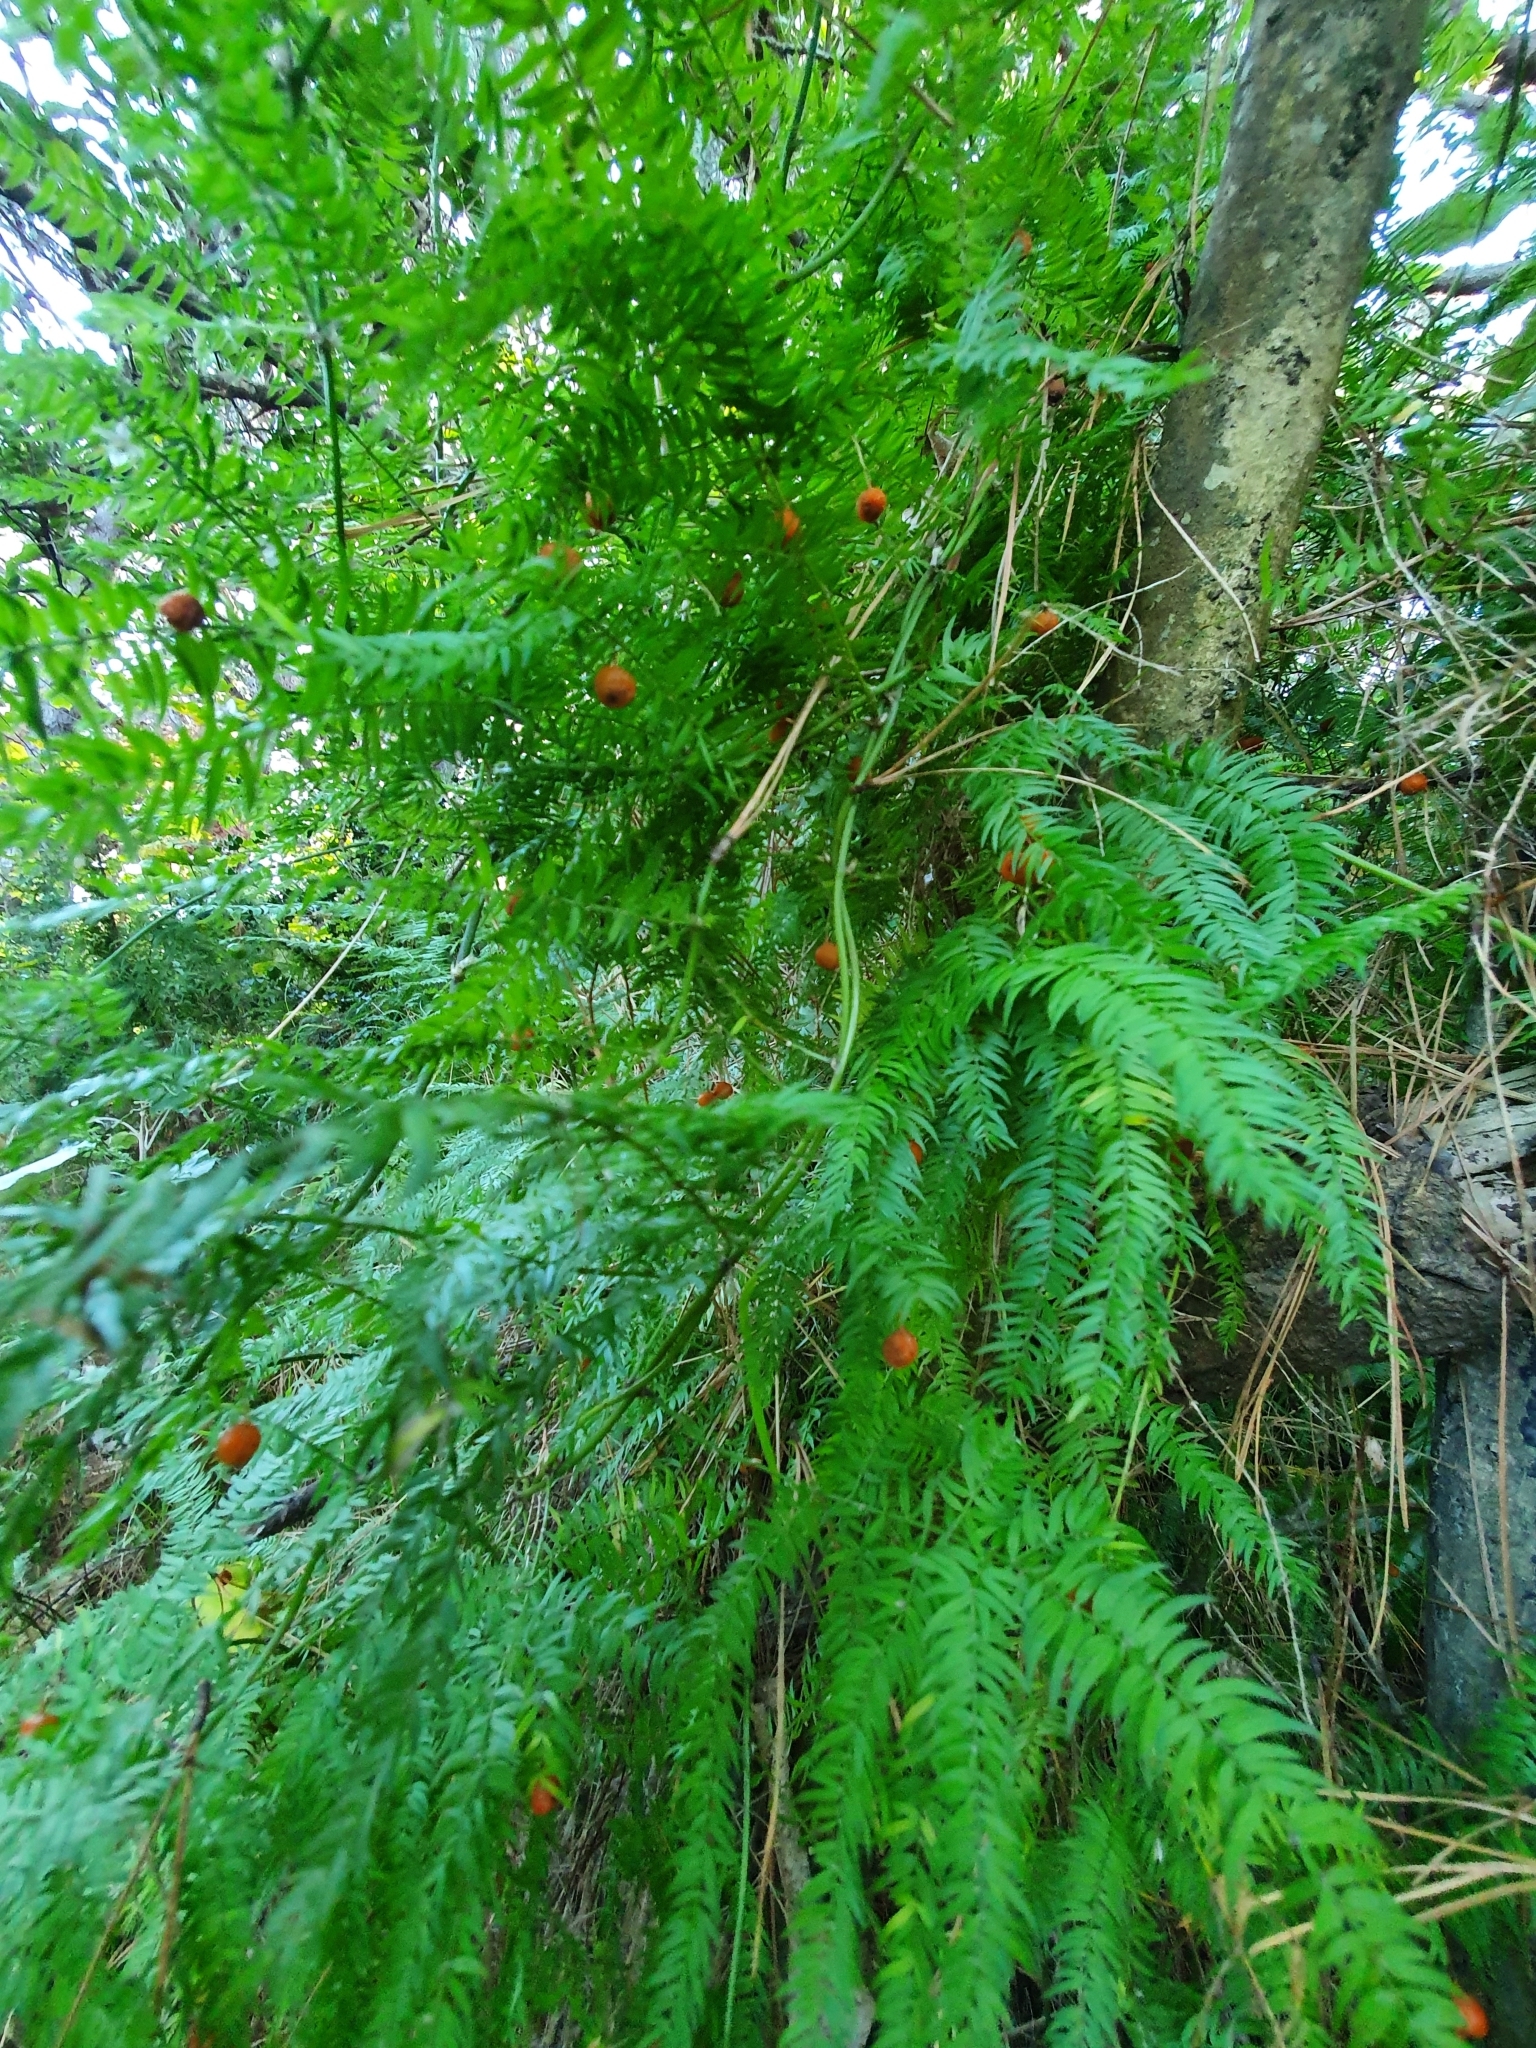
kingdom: Plantae
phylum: Tracheophyta
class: Liliopsida
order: Asparagales
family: Asparagaceae
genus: Asparagus
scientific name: Asparagus scandens
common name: Asparagus-fern
